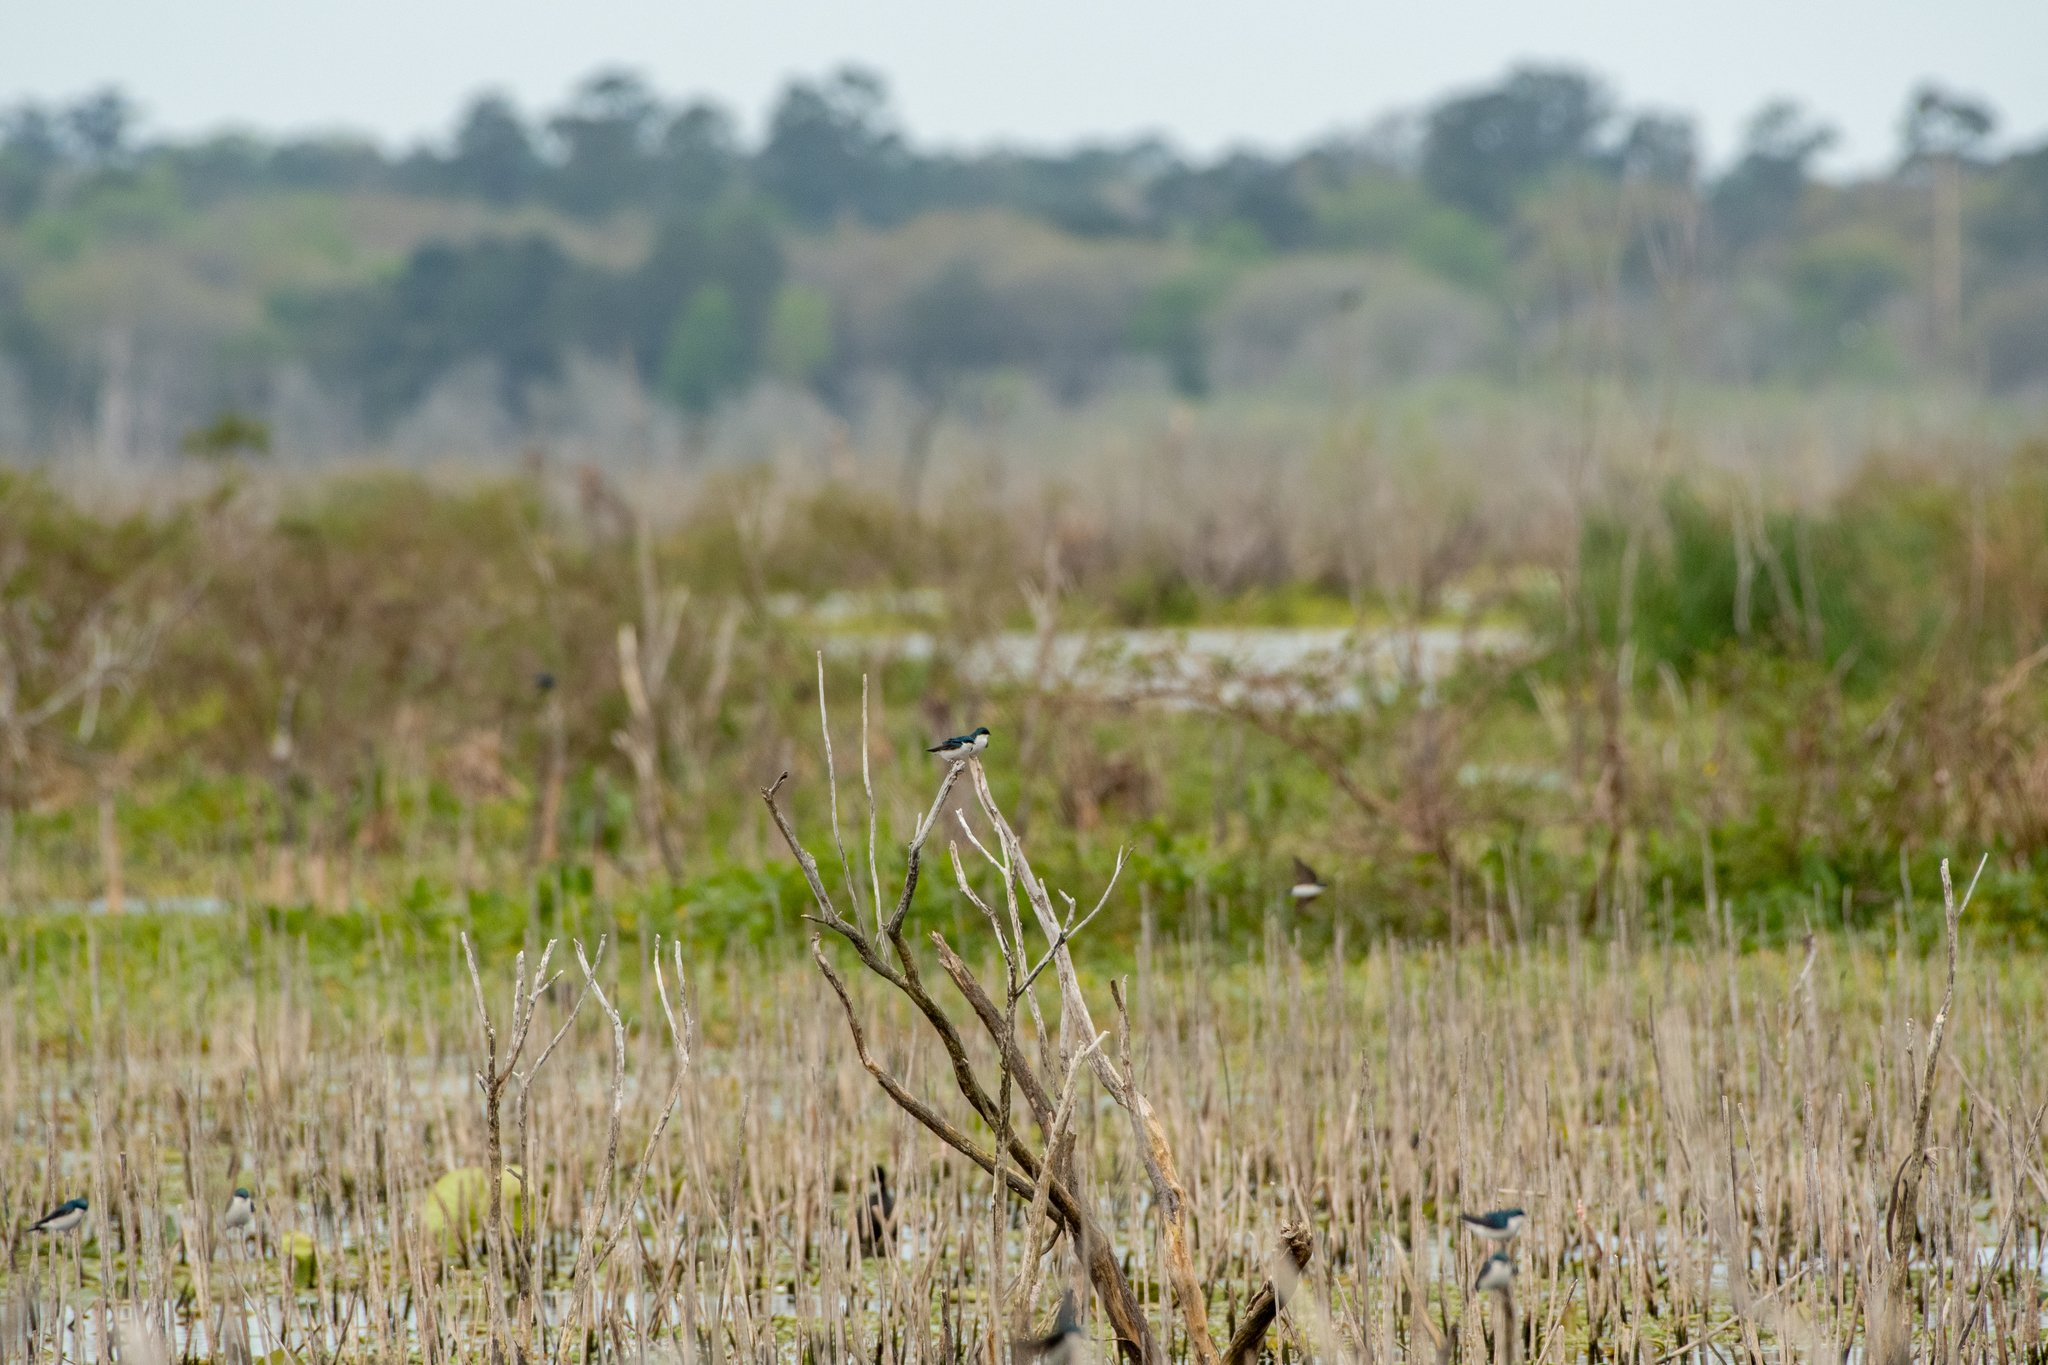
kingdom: Animalia
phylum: Chordata
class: Aves
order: Passeriformes
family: Hirundinidae
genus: Tachycineta
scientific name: Tachycineta bicolor
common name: Tree swallow
